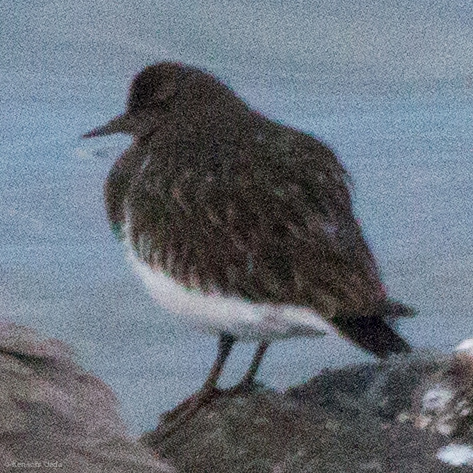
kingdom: Animalia
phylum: Chordata
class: Aves
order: Charadriiformes
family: Scolopacidae
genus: Arenaria
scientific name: Arenaria melanocephala
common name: Black turnstone
